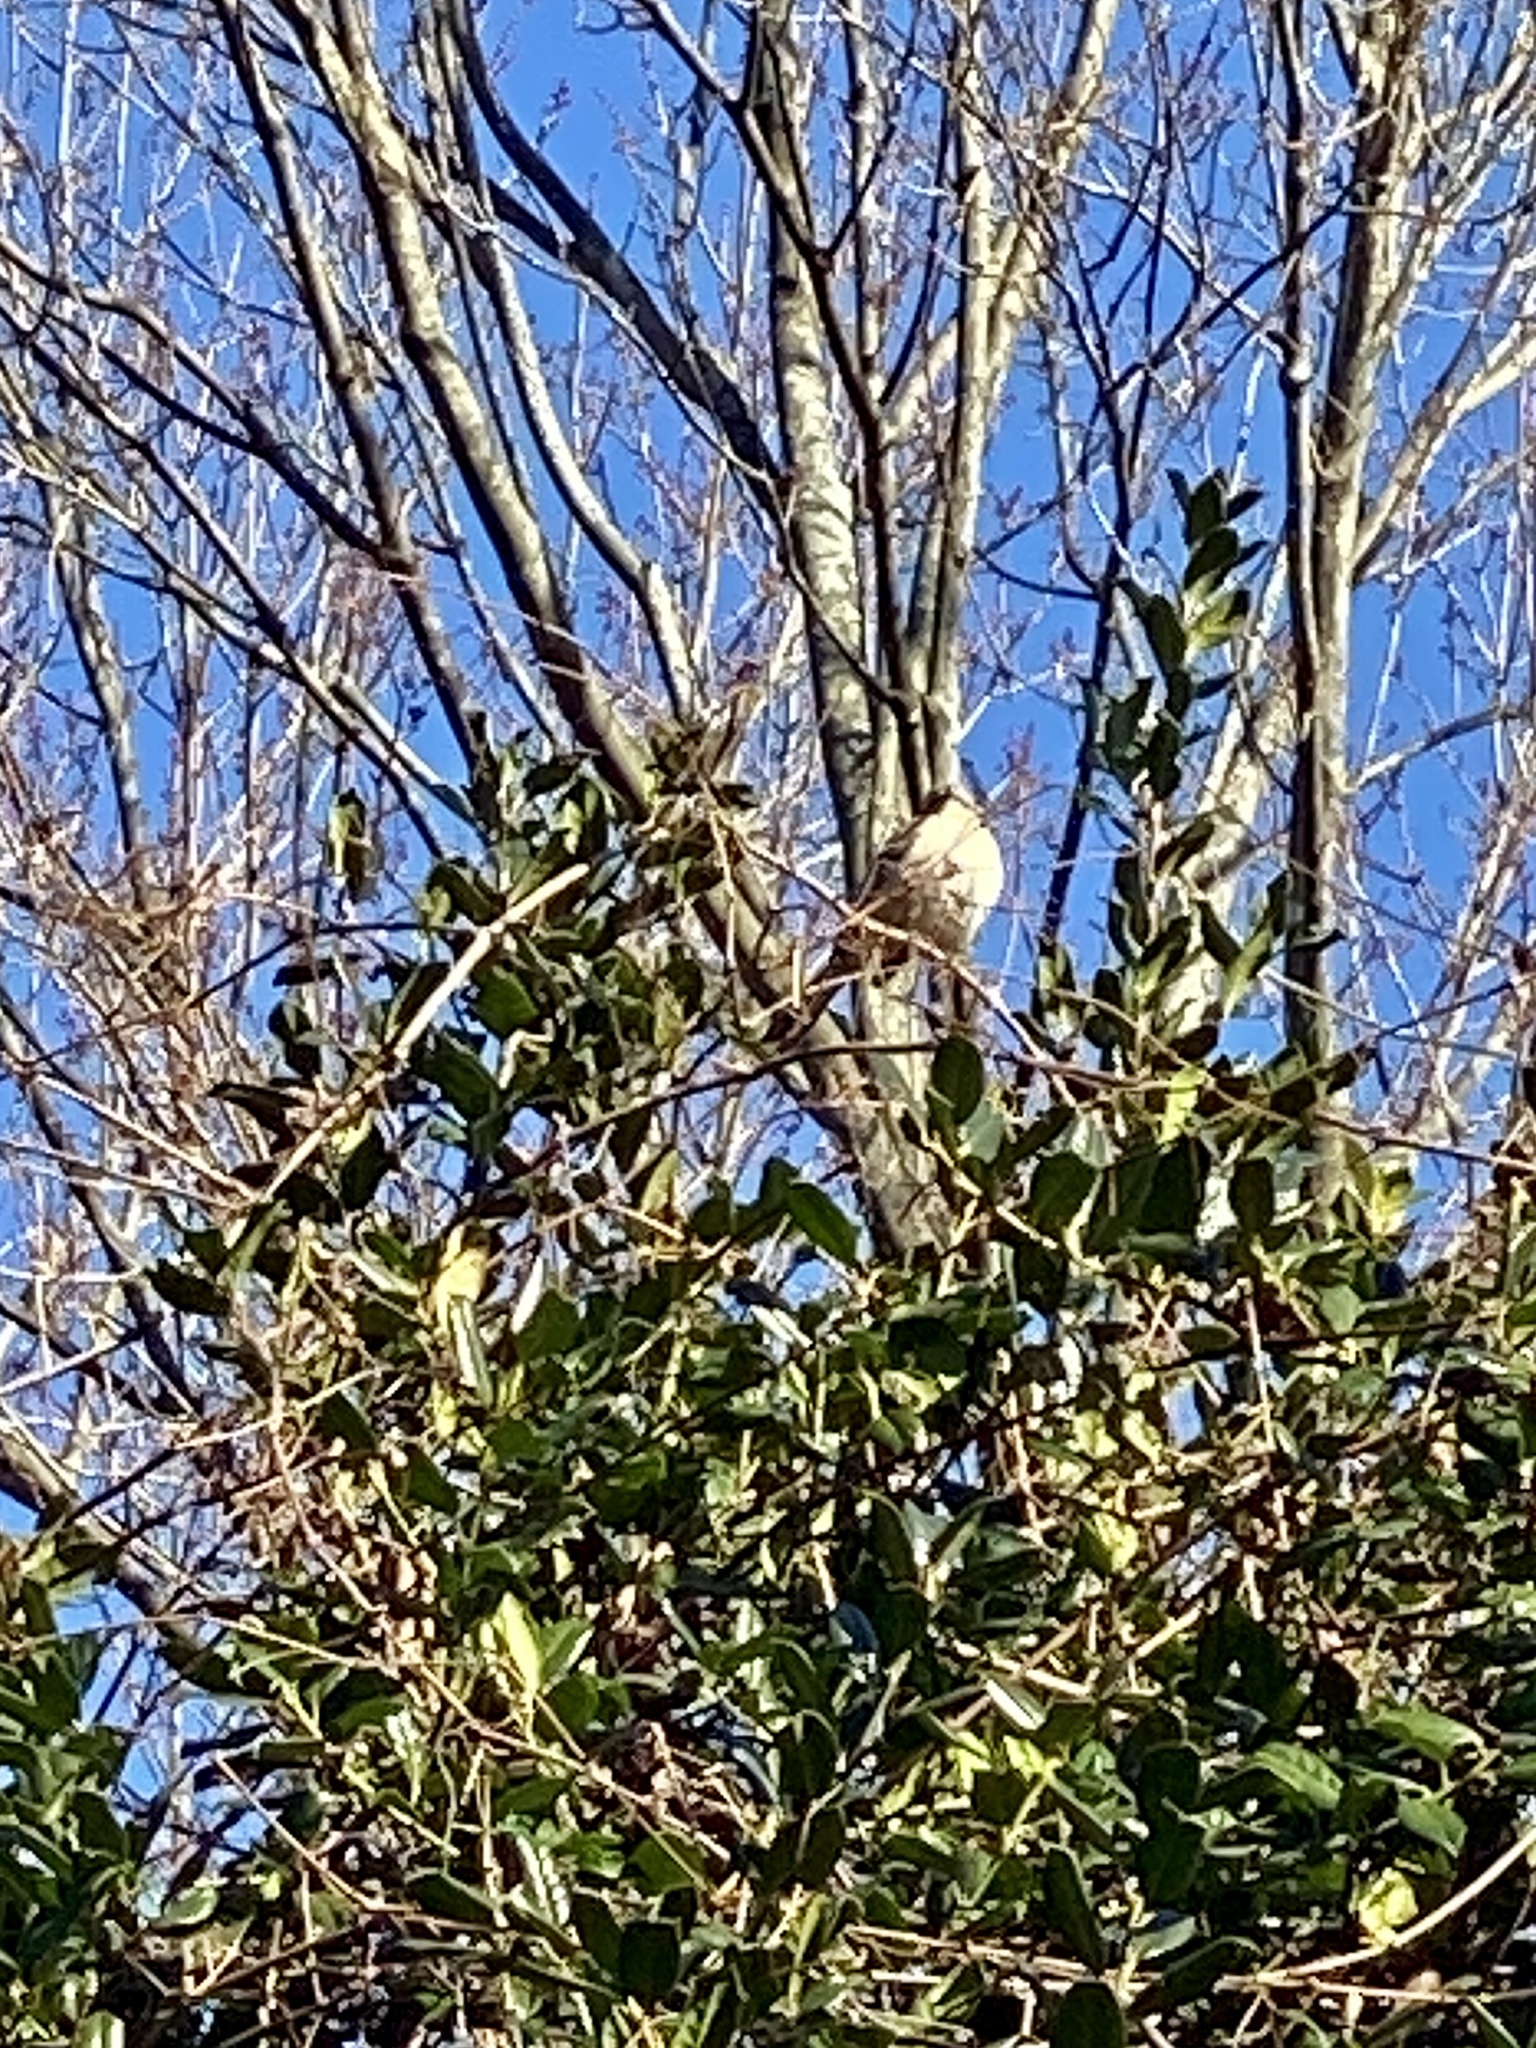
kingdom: Animalia
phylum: Chordata
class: Aves
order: Passeriformes
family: Mimidae
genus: Mimus
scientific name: Mimus polyglottos
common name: Northern mockingbird
